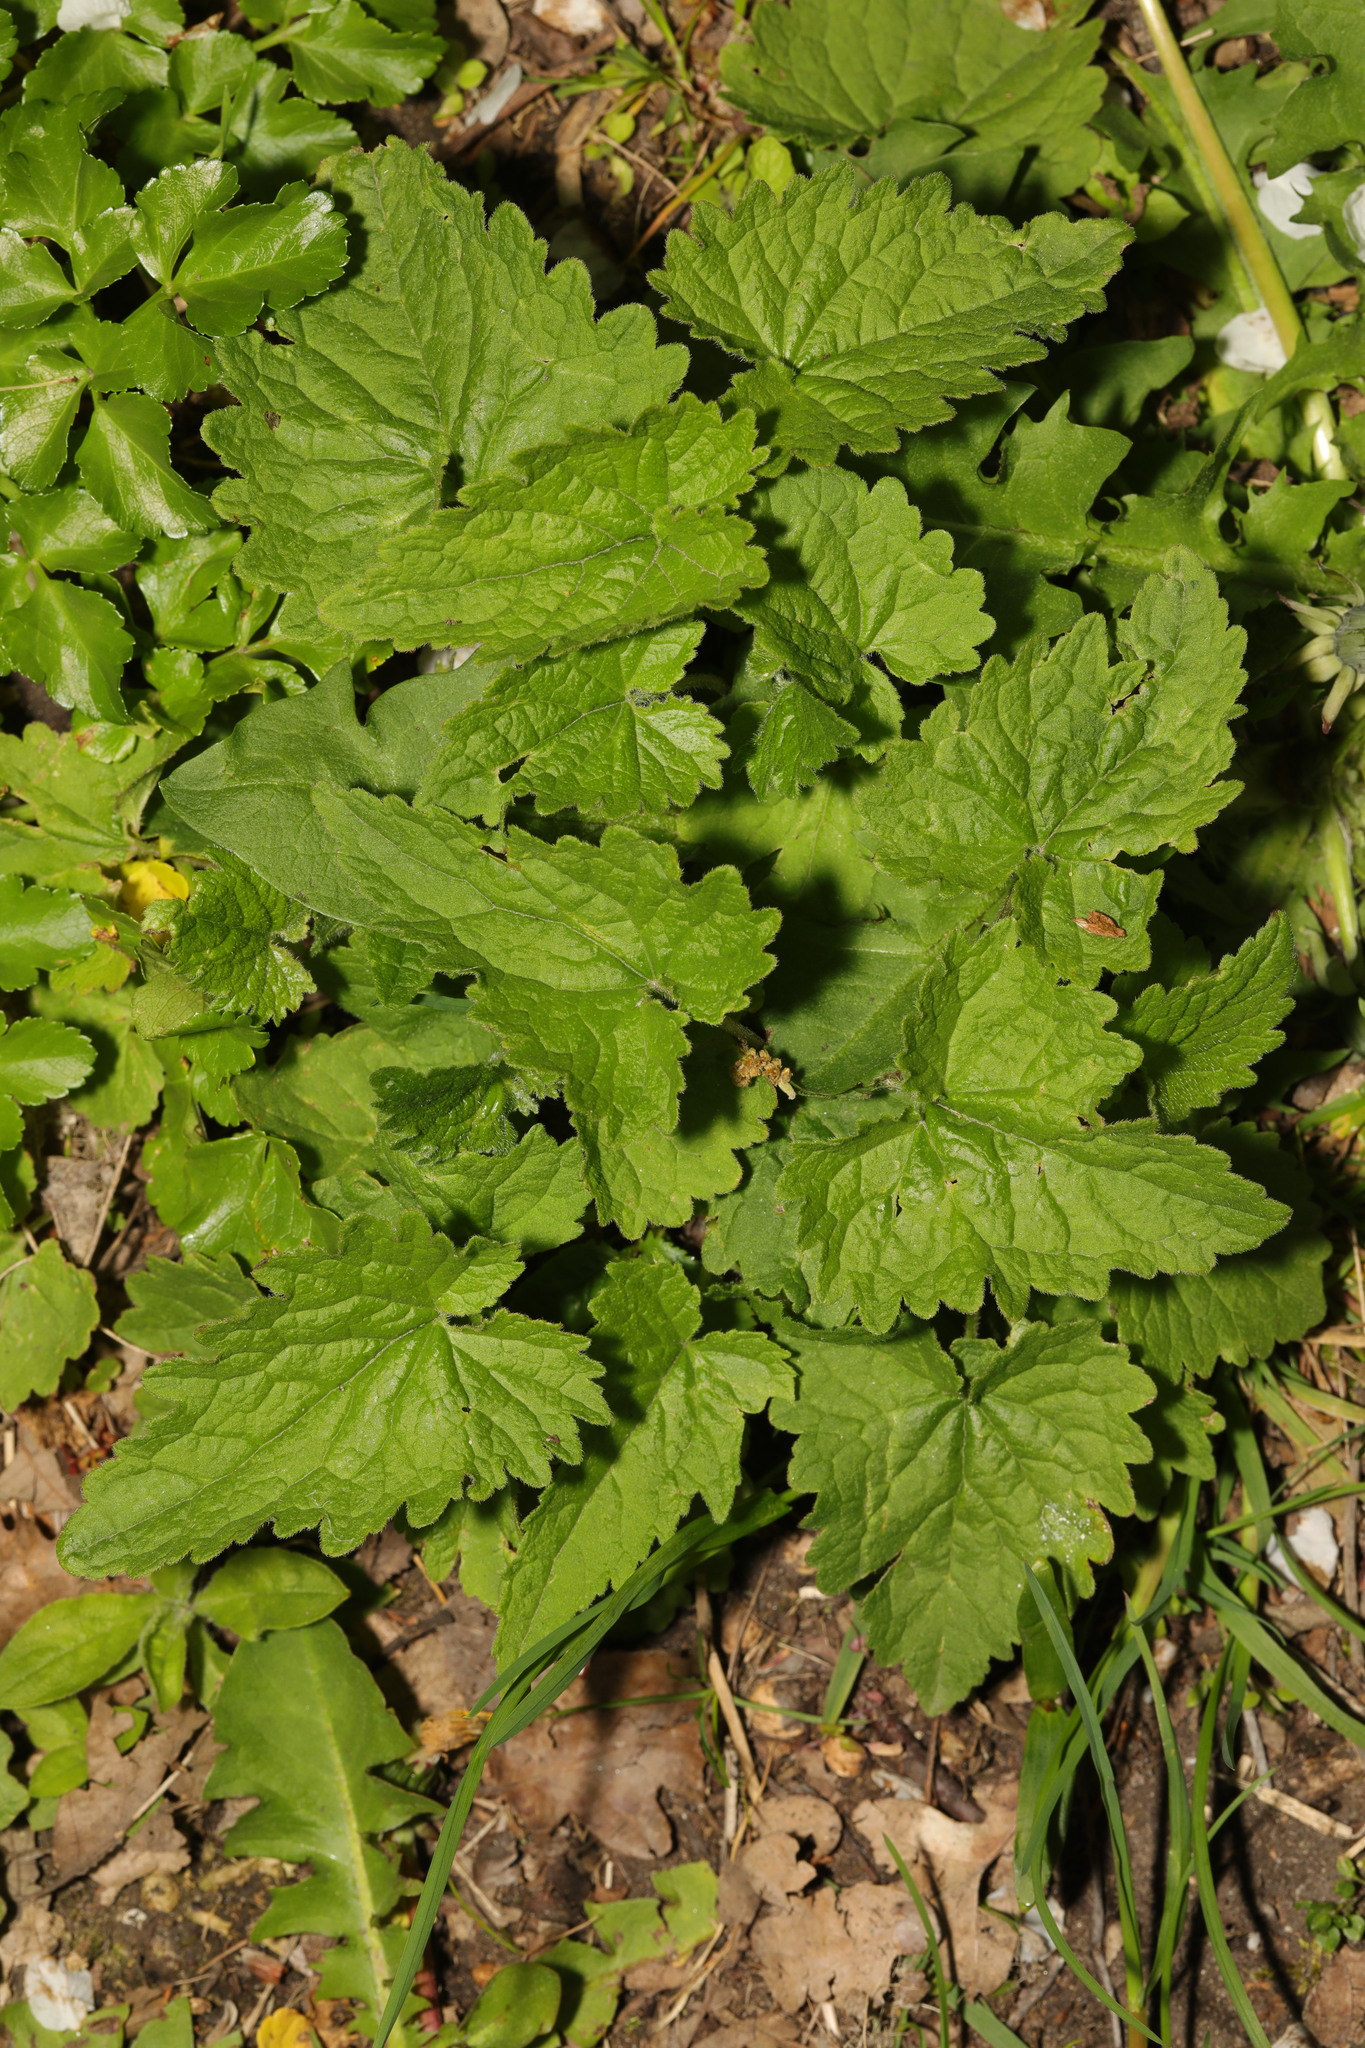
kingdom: Plantae
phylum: Tracheophyta
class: Magnoliopsida
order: Saxifragales
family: Saxifragaceae
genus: Tellima
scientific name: Tellima grandiflora
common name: Fringecups
